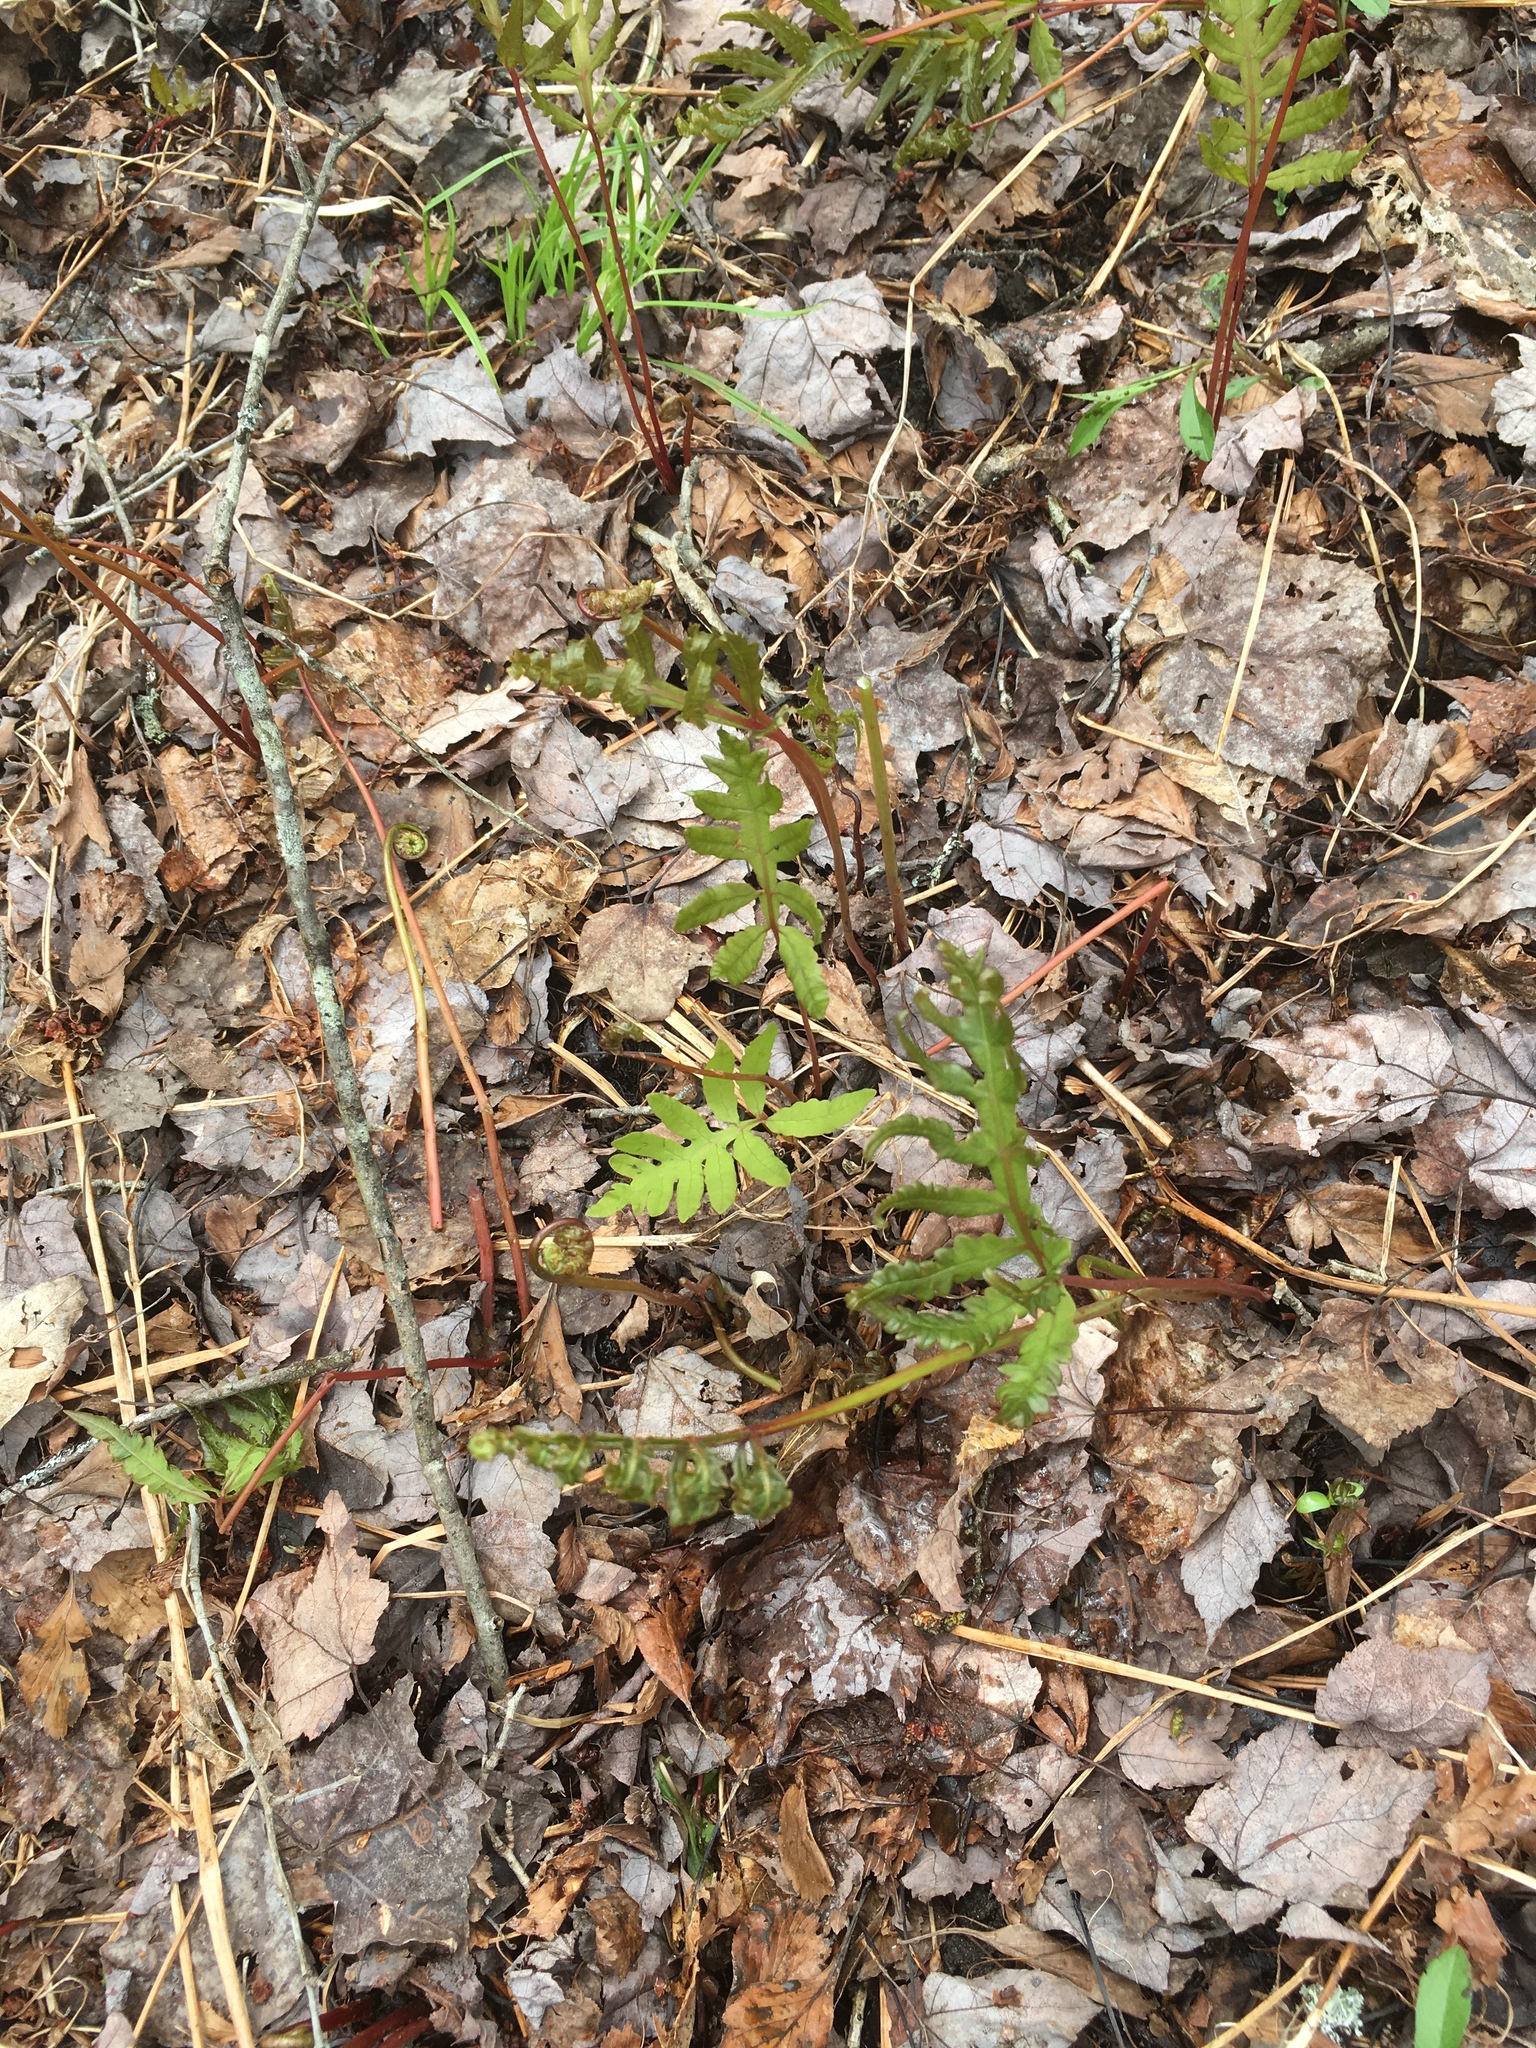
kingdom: Plantae
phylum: Tracheophyta
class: Polypodiopsida
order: Polypodiales
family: Onocleaceae
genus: Onoclea
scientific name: Onoclea sensibilis
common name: Sensitive fern
